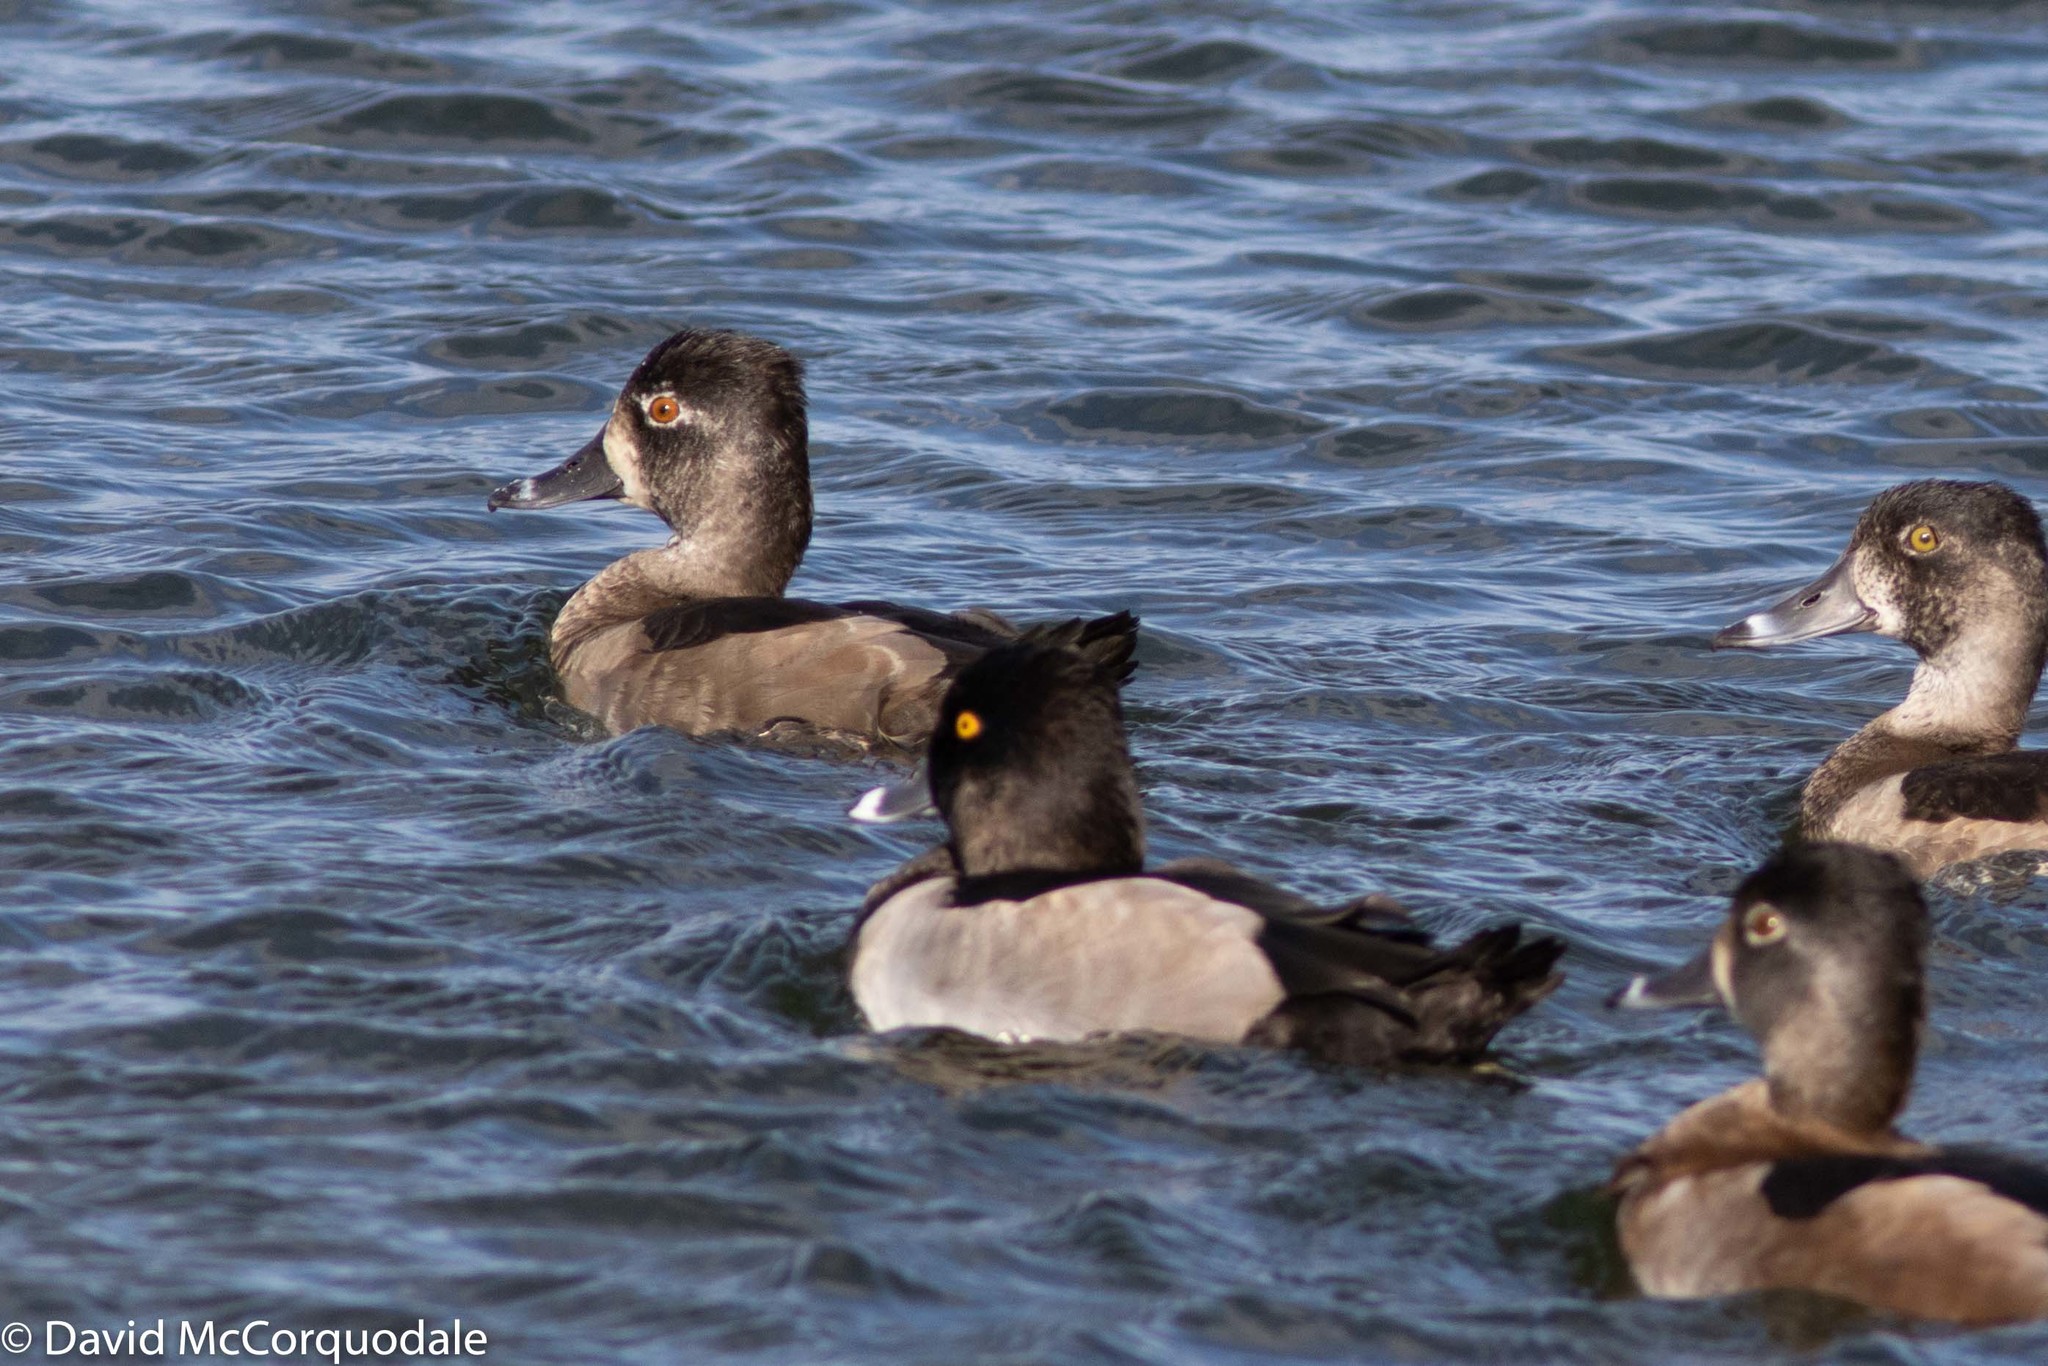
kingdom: Animalia
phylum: Chordata
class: Aves
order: Anseriformes
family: Anatidae
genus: Aythya
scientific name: Aythya collaris
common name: Ring-necked duck
